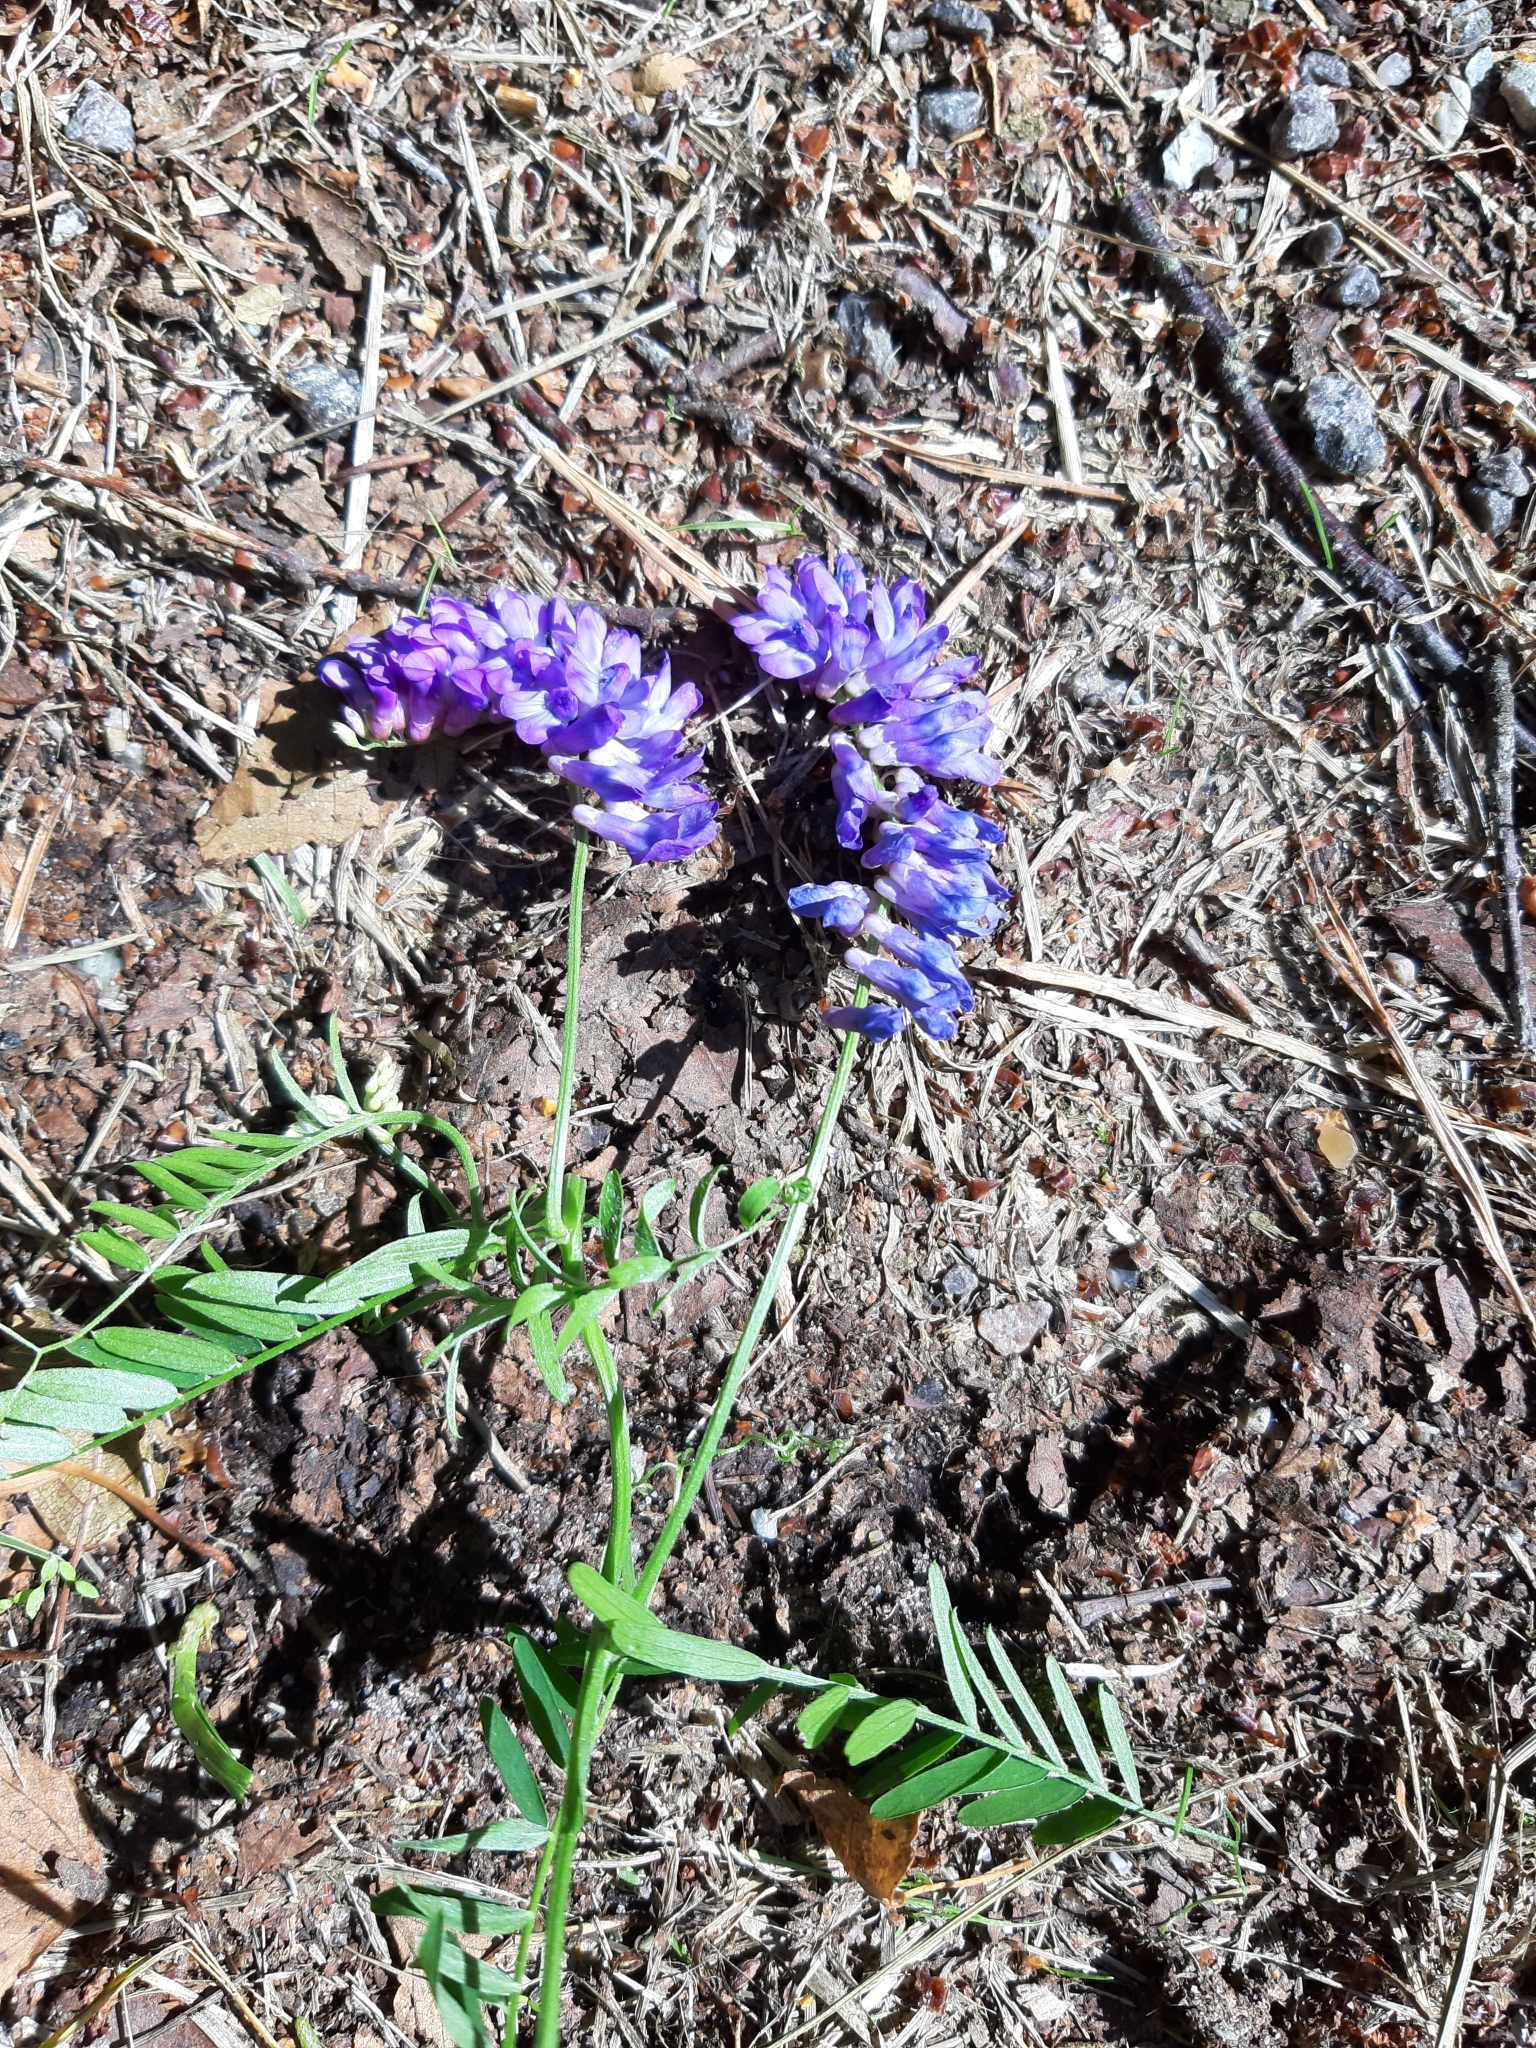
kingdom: Plantae
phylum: Tracheophyta
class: Magnoliopsida
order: Fabales
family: Fabaceae
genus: Vicia
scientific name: Vicia cracca
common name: Bird vetch
